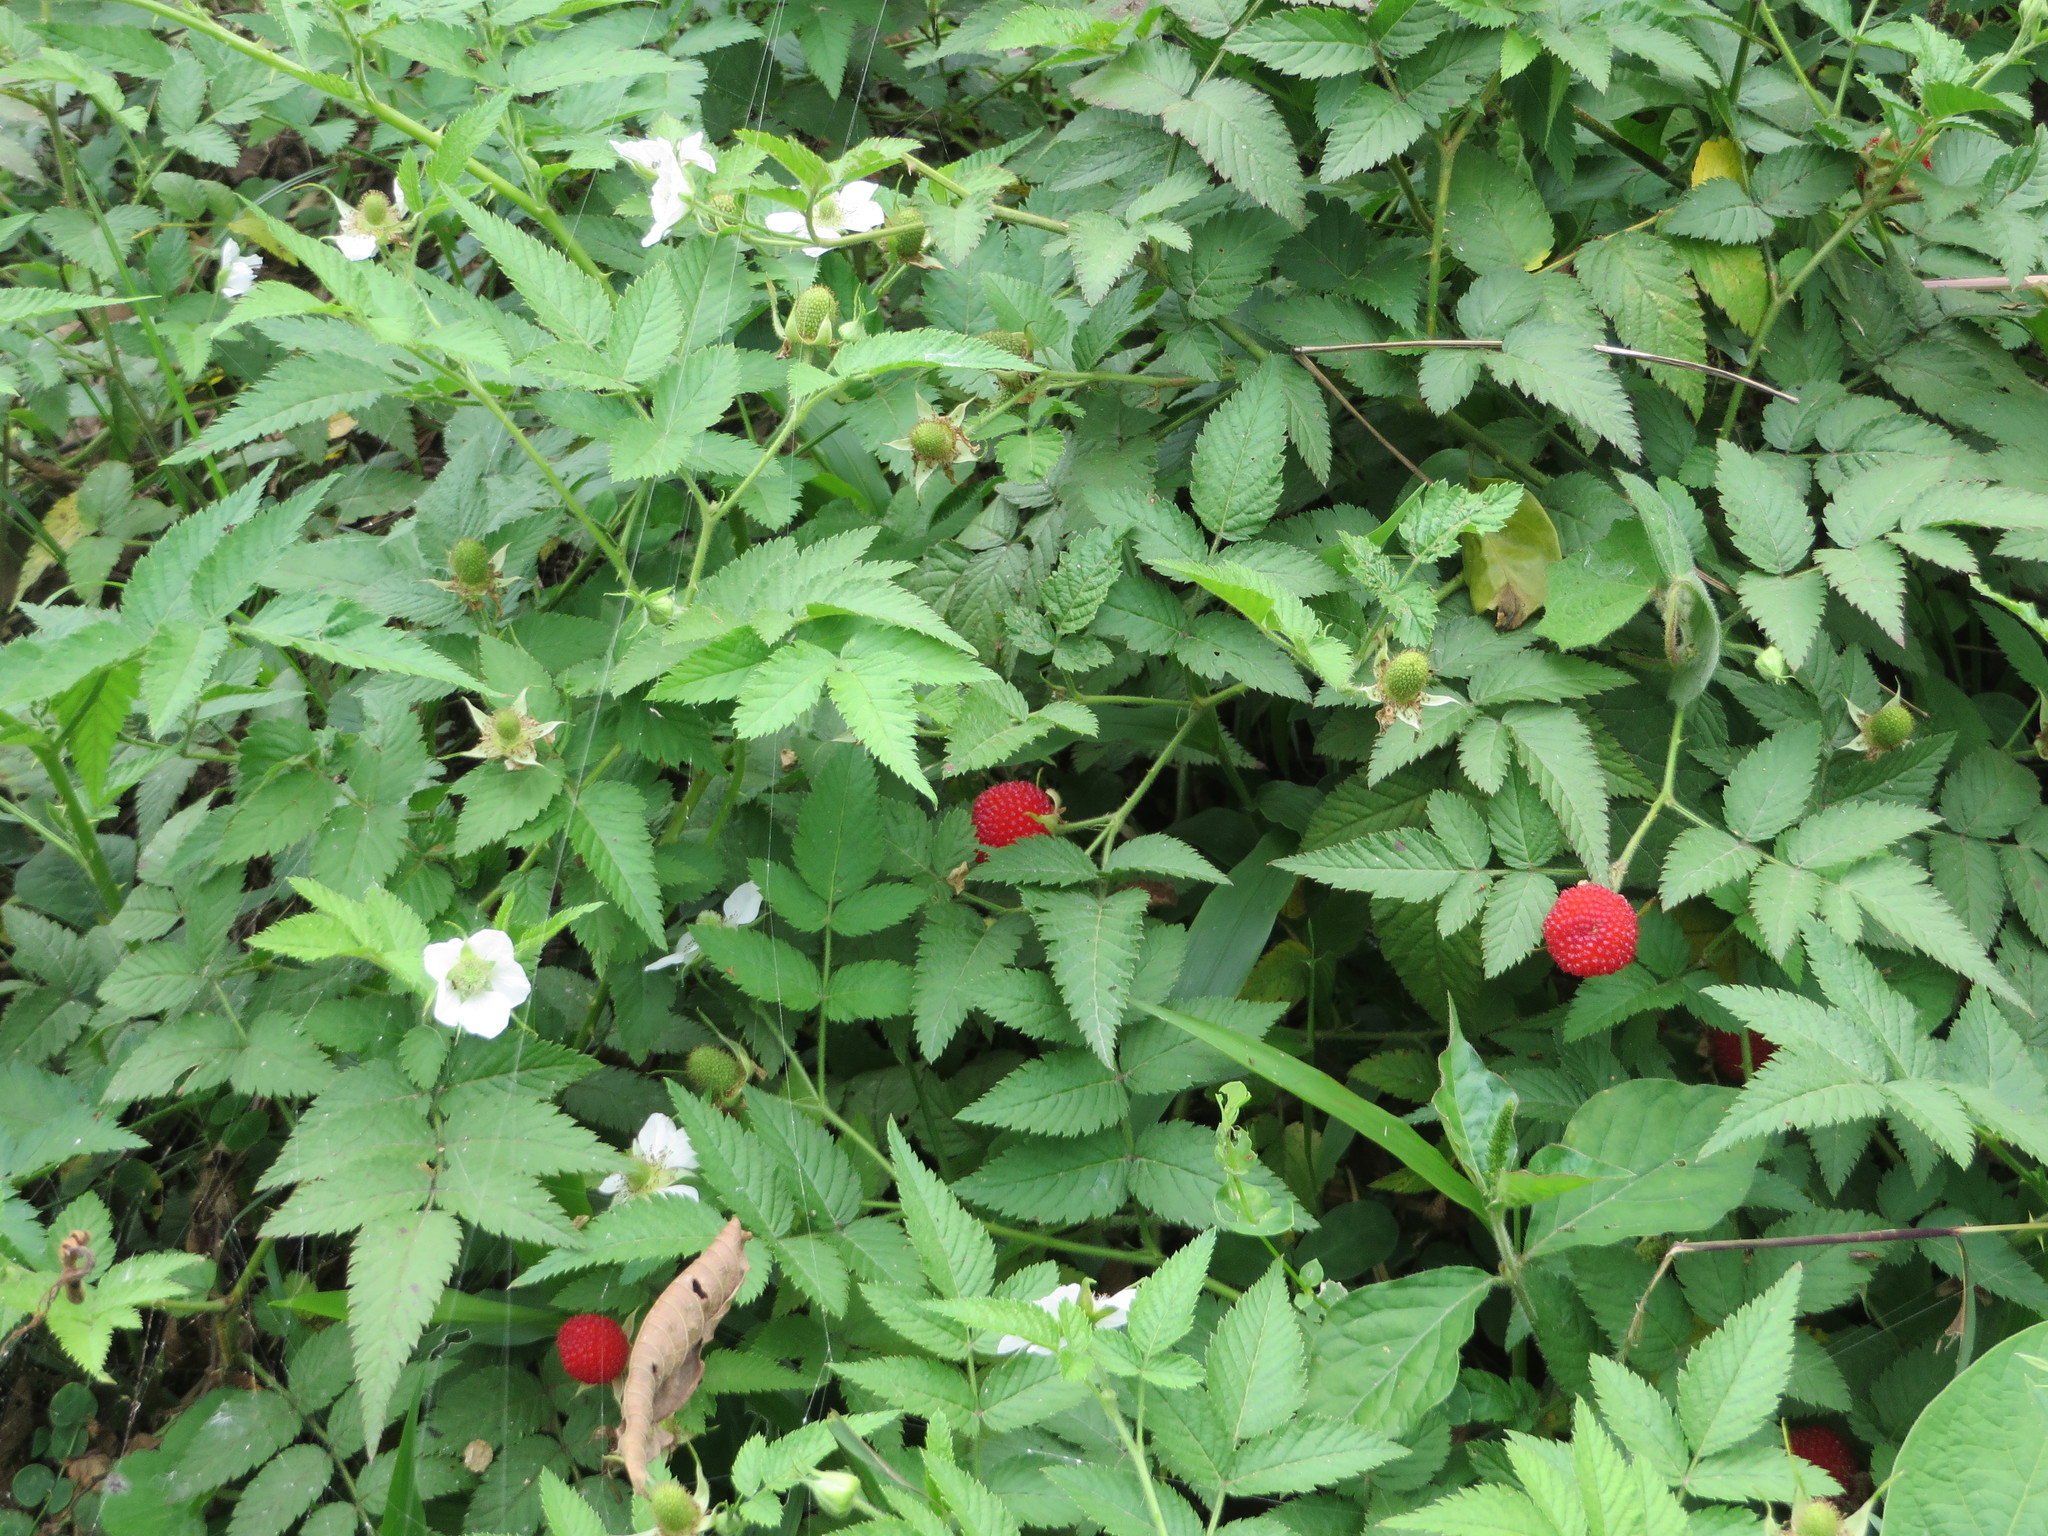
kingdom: Plantae
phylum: Tracheophyta
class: Magnoliopsida
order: Rosales
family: Rosaceae
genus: Rubus
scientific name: Rubus rosifolius
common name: Roseleaf raspberry
